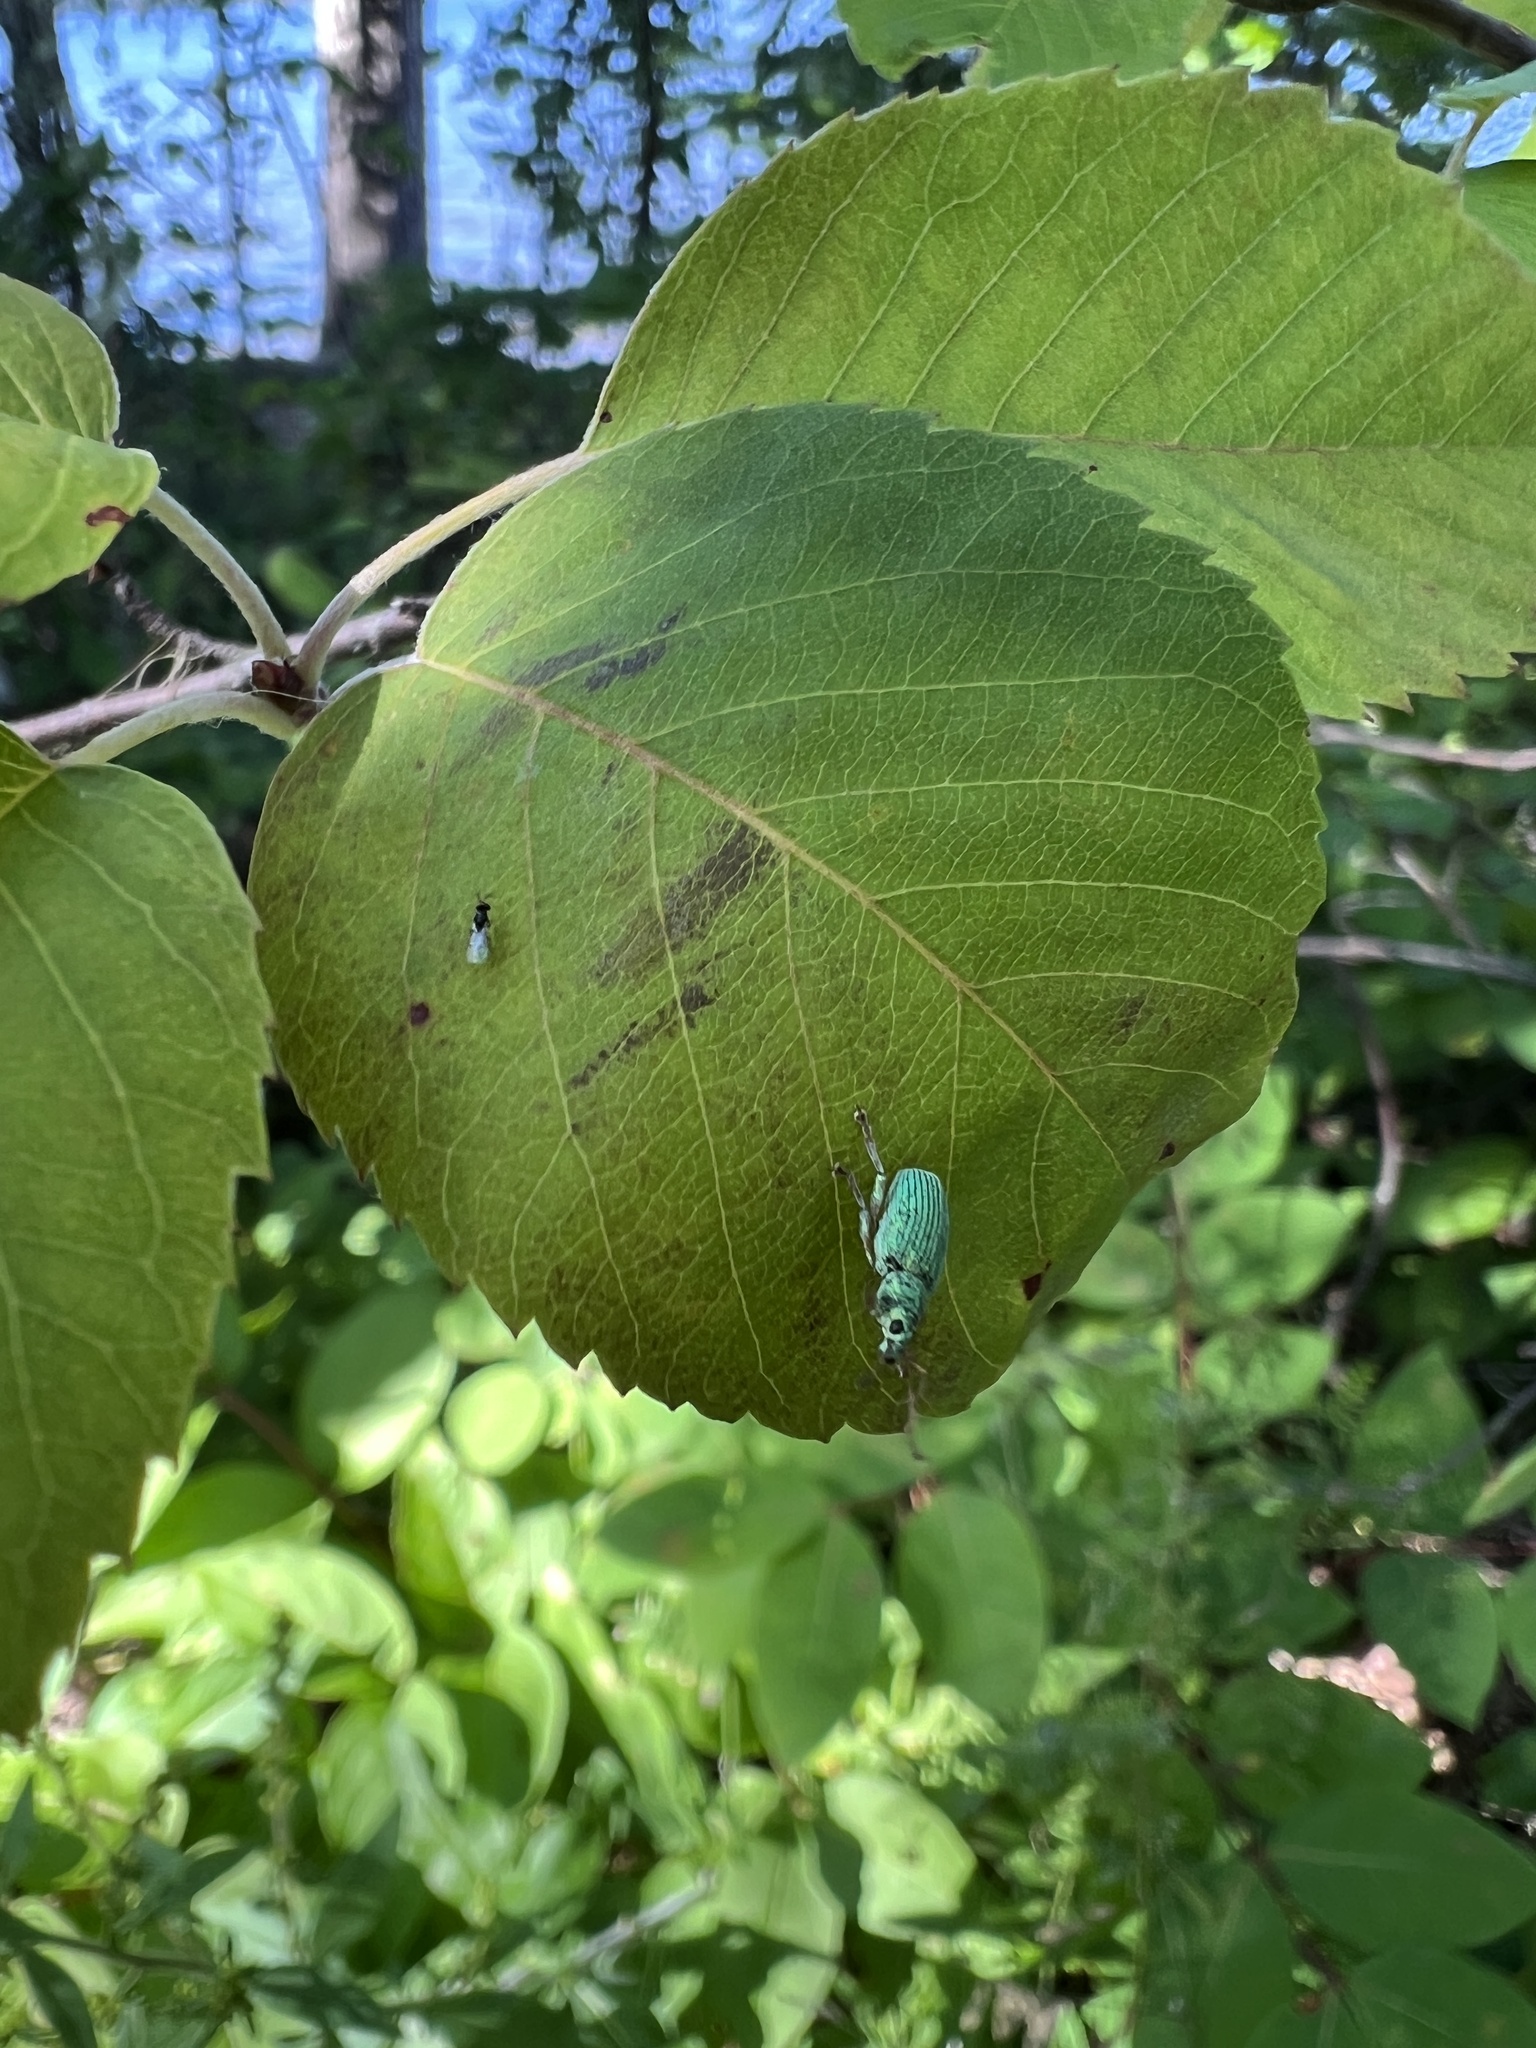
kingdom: Animalia
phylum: Arthropoda
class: Insecta
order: Coleoptera
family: Curculionidae
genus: Polydrusus
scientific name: Polydrusus formosus
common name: Weevil
